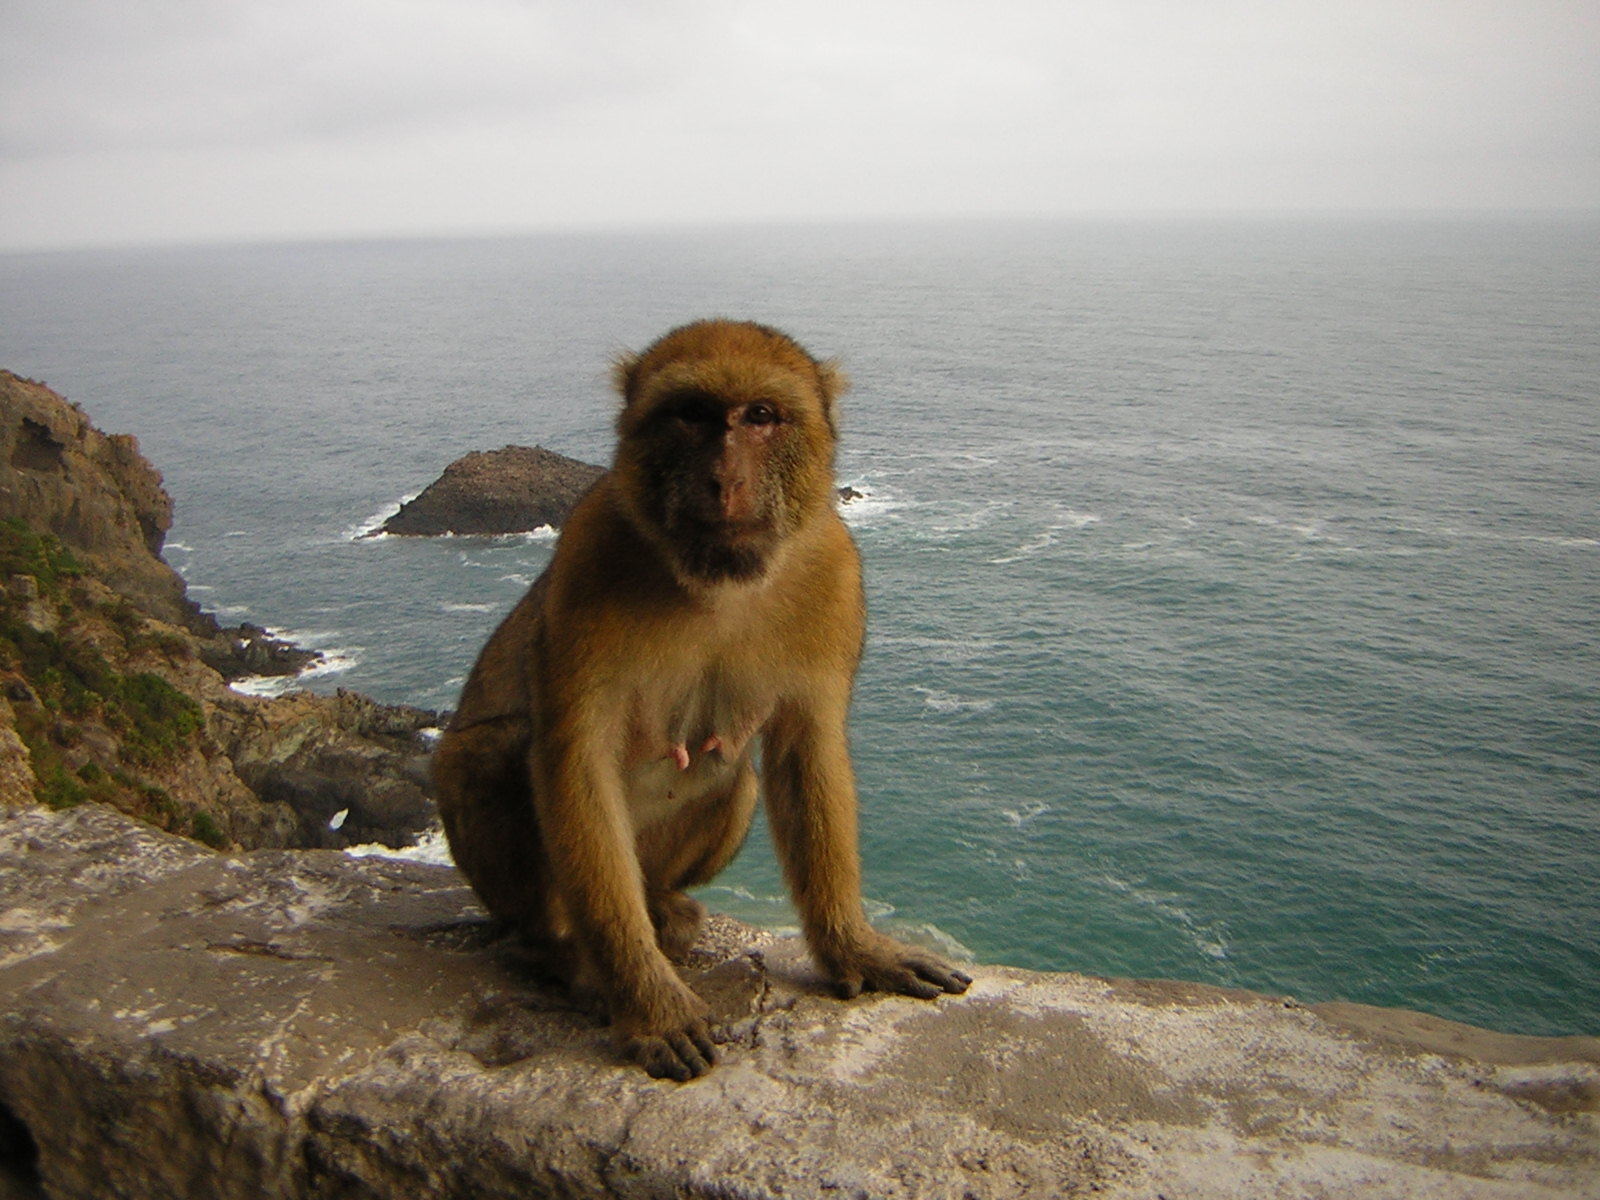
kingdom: Animalia
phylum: Chordata
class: Mammalia
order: Primates
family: Cercopithecidae
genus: Macaca
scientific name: Macaca sylvanus
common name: Barbary macaque
